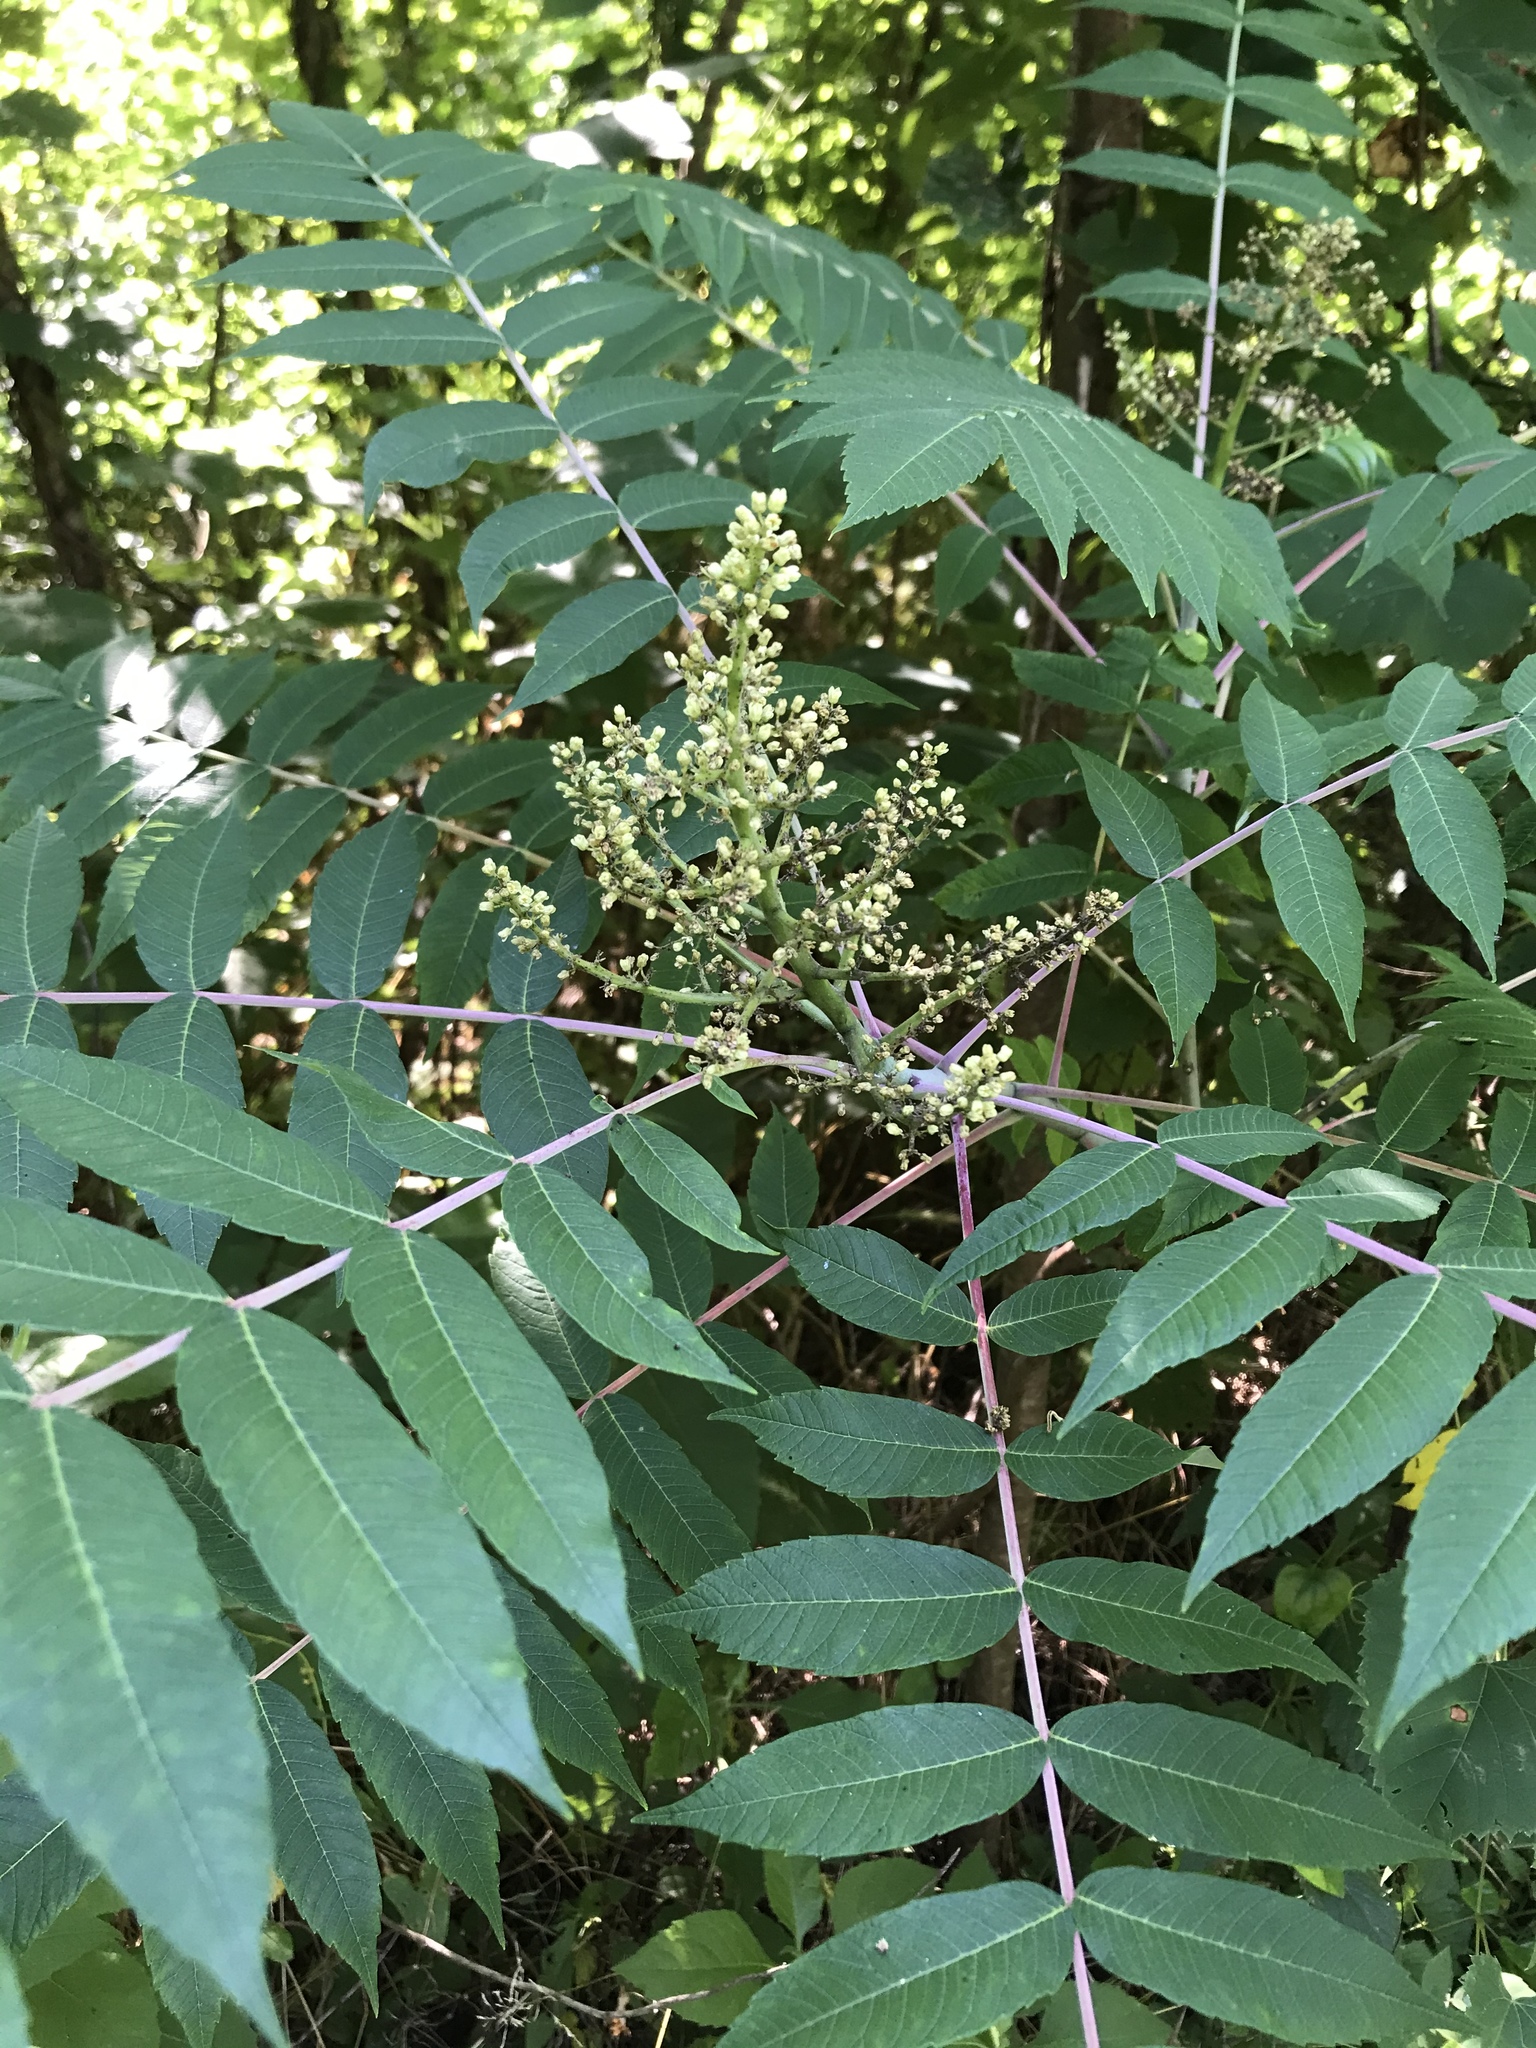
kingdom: Plantae
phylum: Tracheophyta
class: Magnoliopsida
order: Sapindales
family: Anacardiaceae
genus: Rhus
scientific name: Rhus glabra
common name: Scarlet sumac
